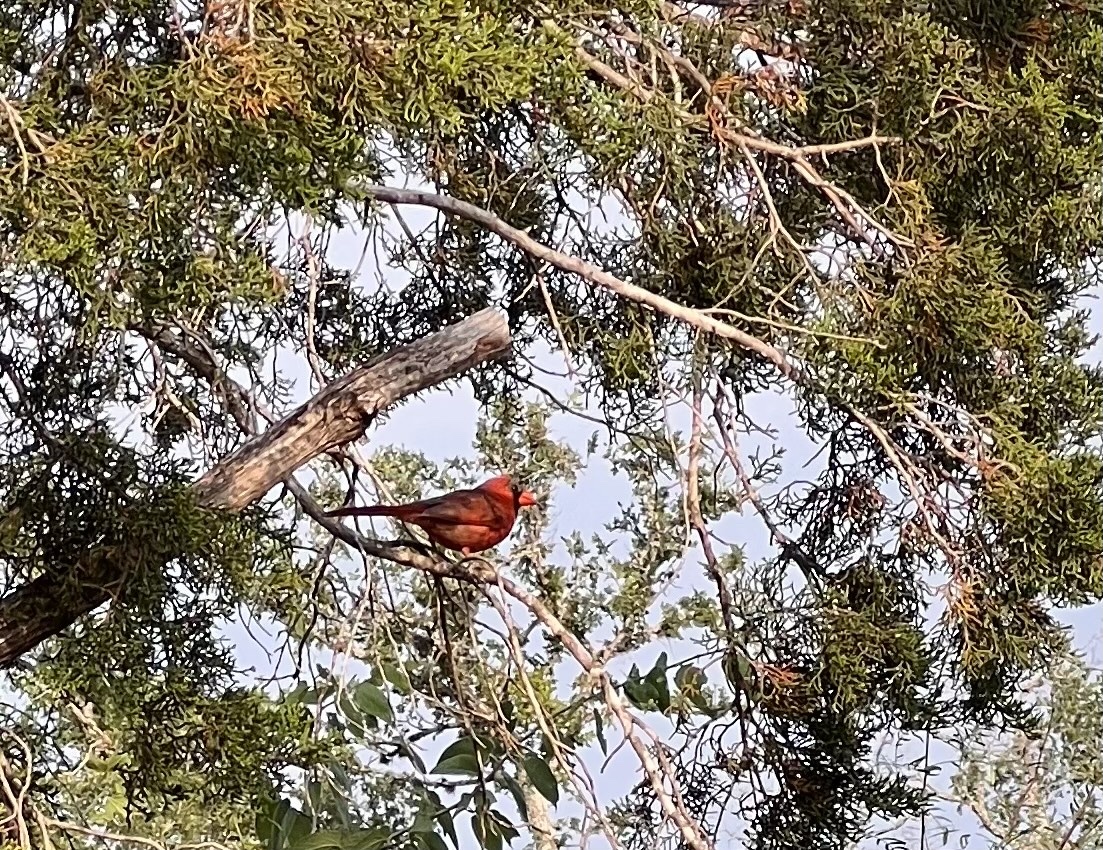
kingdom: Animalia
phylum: Chordata
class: Aves
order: Passeriformes
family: Cardinalidae
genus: Cardinalis
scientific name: Cardinalis cardinalis
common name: Northern cardinal
